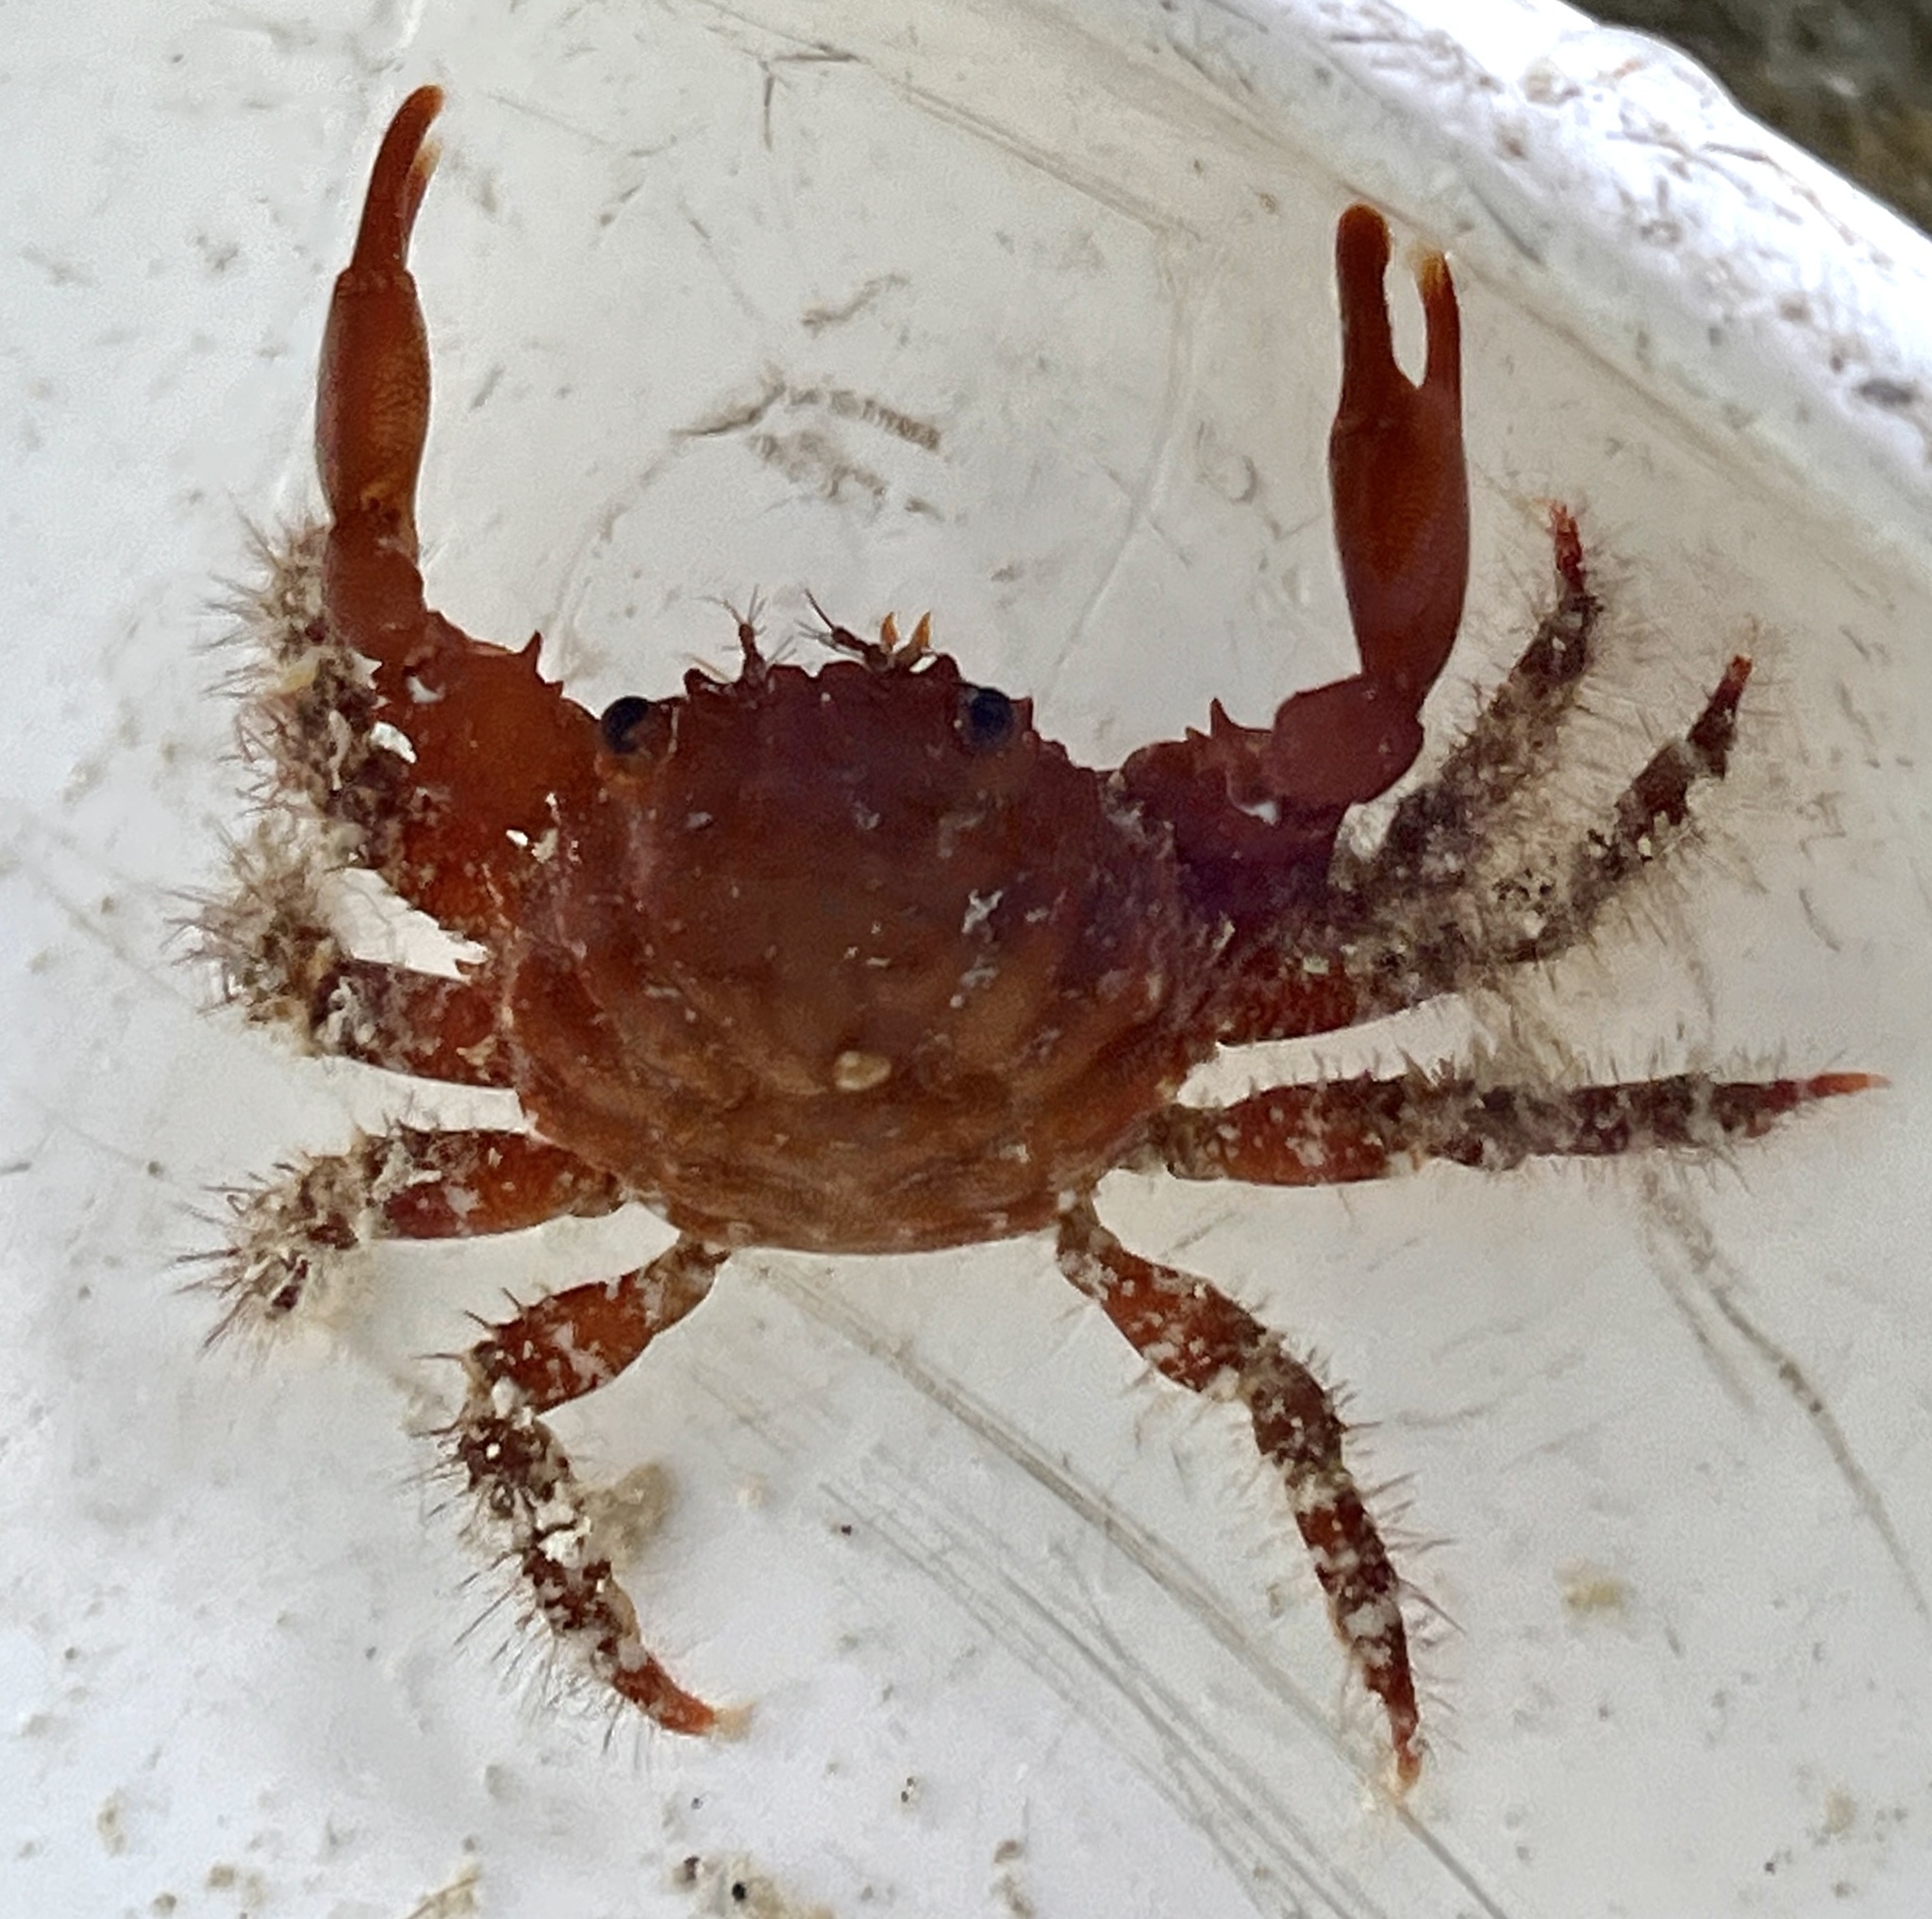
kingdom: Animalia
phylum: Arthropoda
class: Malacostraca
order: Decapoda
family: Mithracidae
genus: Mithraculus
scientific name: Mithraculus forceps
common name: Red-ridged clinging crab
